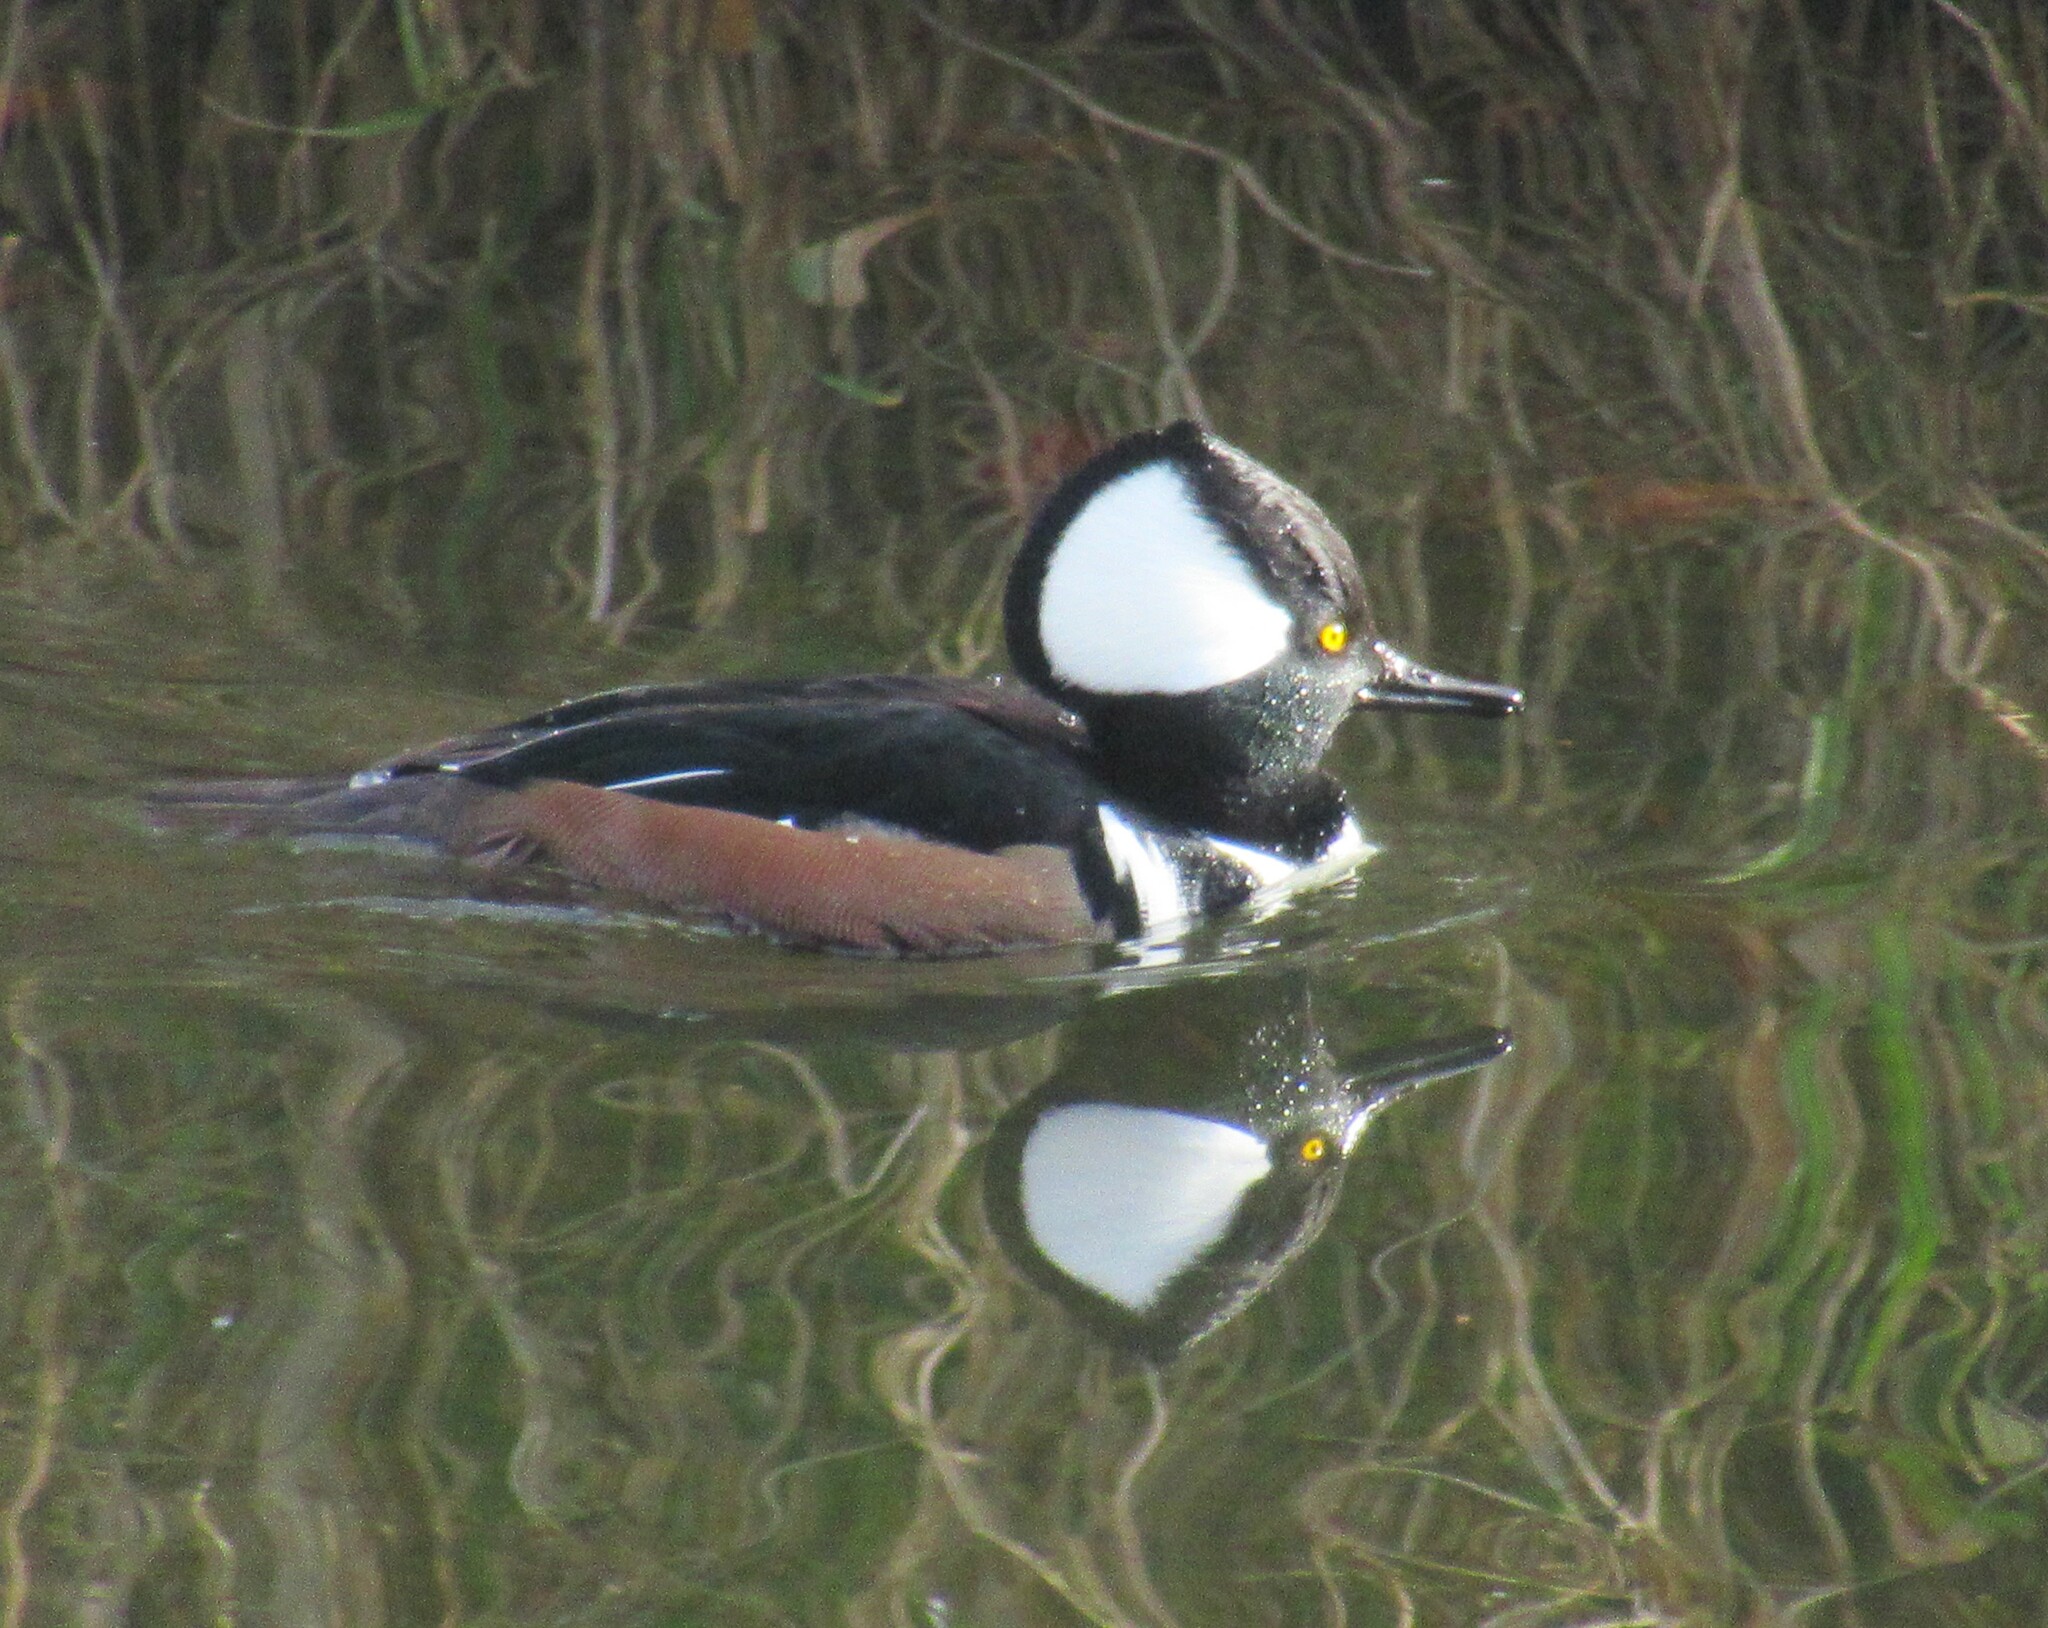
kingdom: Animalia
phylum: Chordata
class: Aves
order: Anseriformes
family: Anatidae
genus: Lophodytes
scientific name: Lophodytes cucullatus
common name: Hooded merganser
